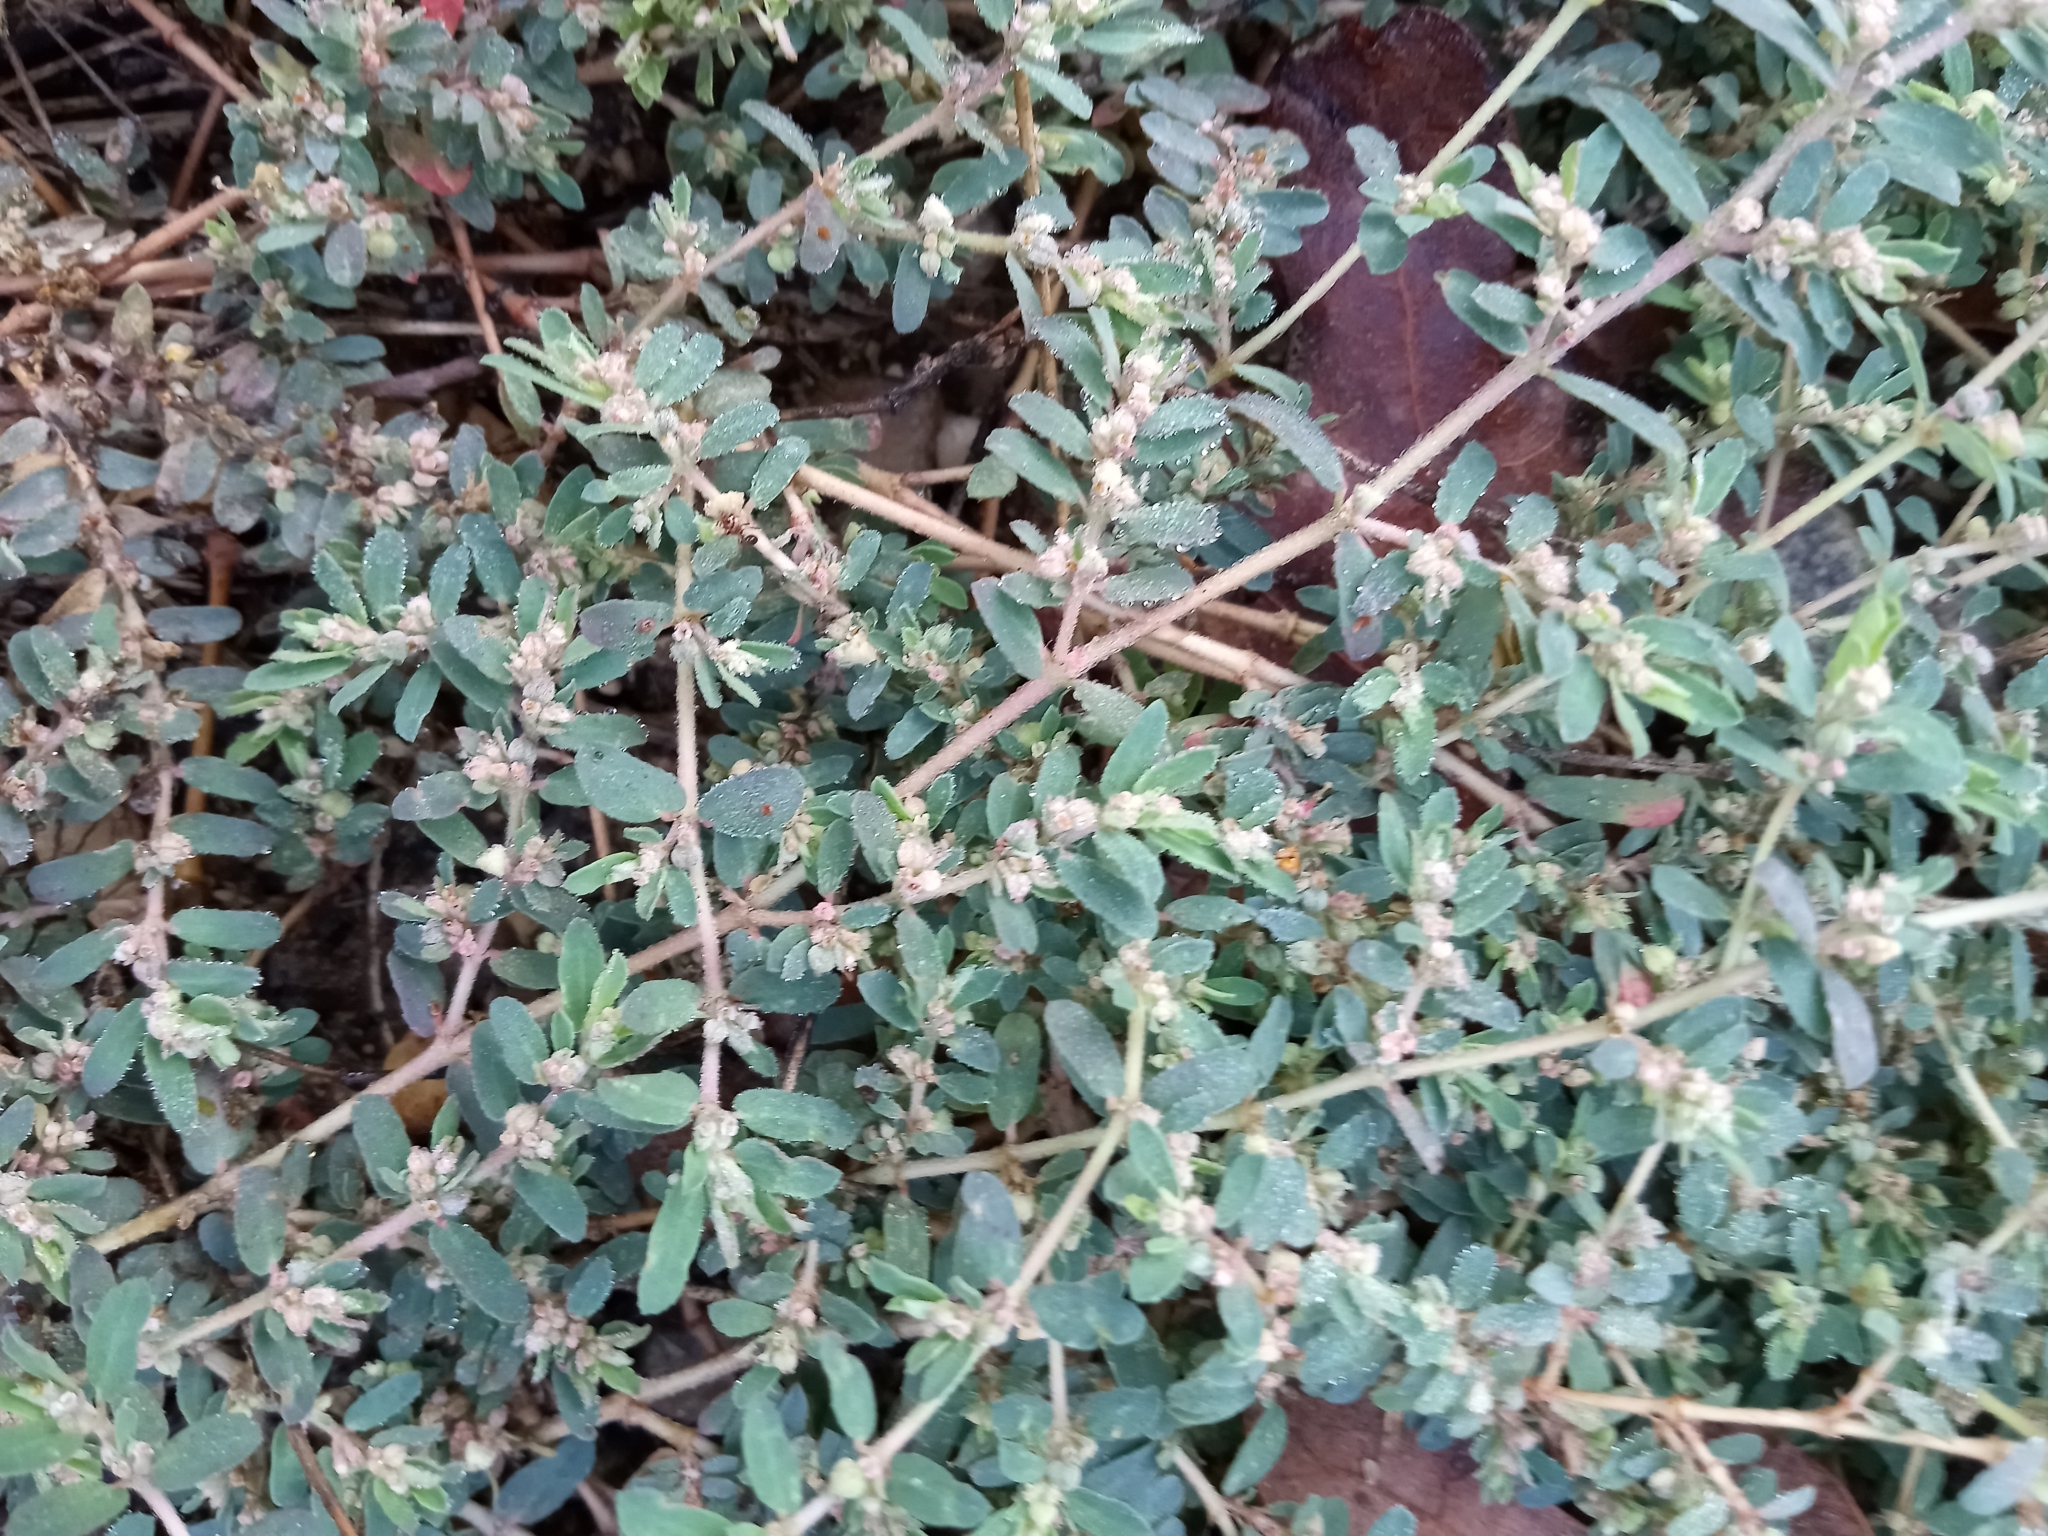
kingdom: Plantae
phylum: Tracheophyta
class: Magnoliopsida
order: Malpighiales
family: Euphorbiaceae
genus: Euphorbia
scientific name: Euphorbia maculata
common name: Spotted spurge
